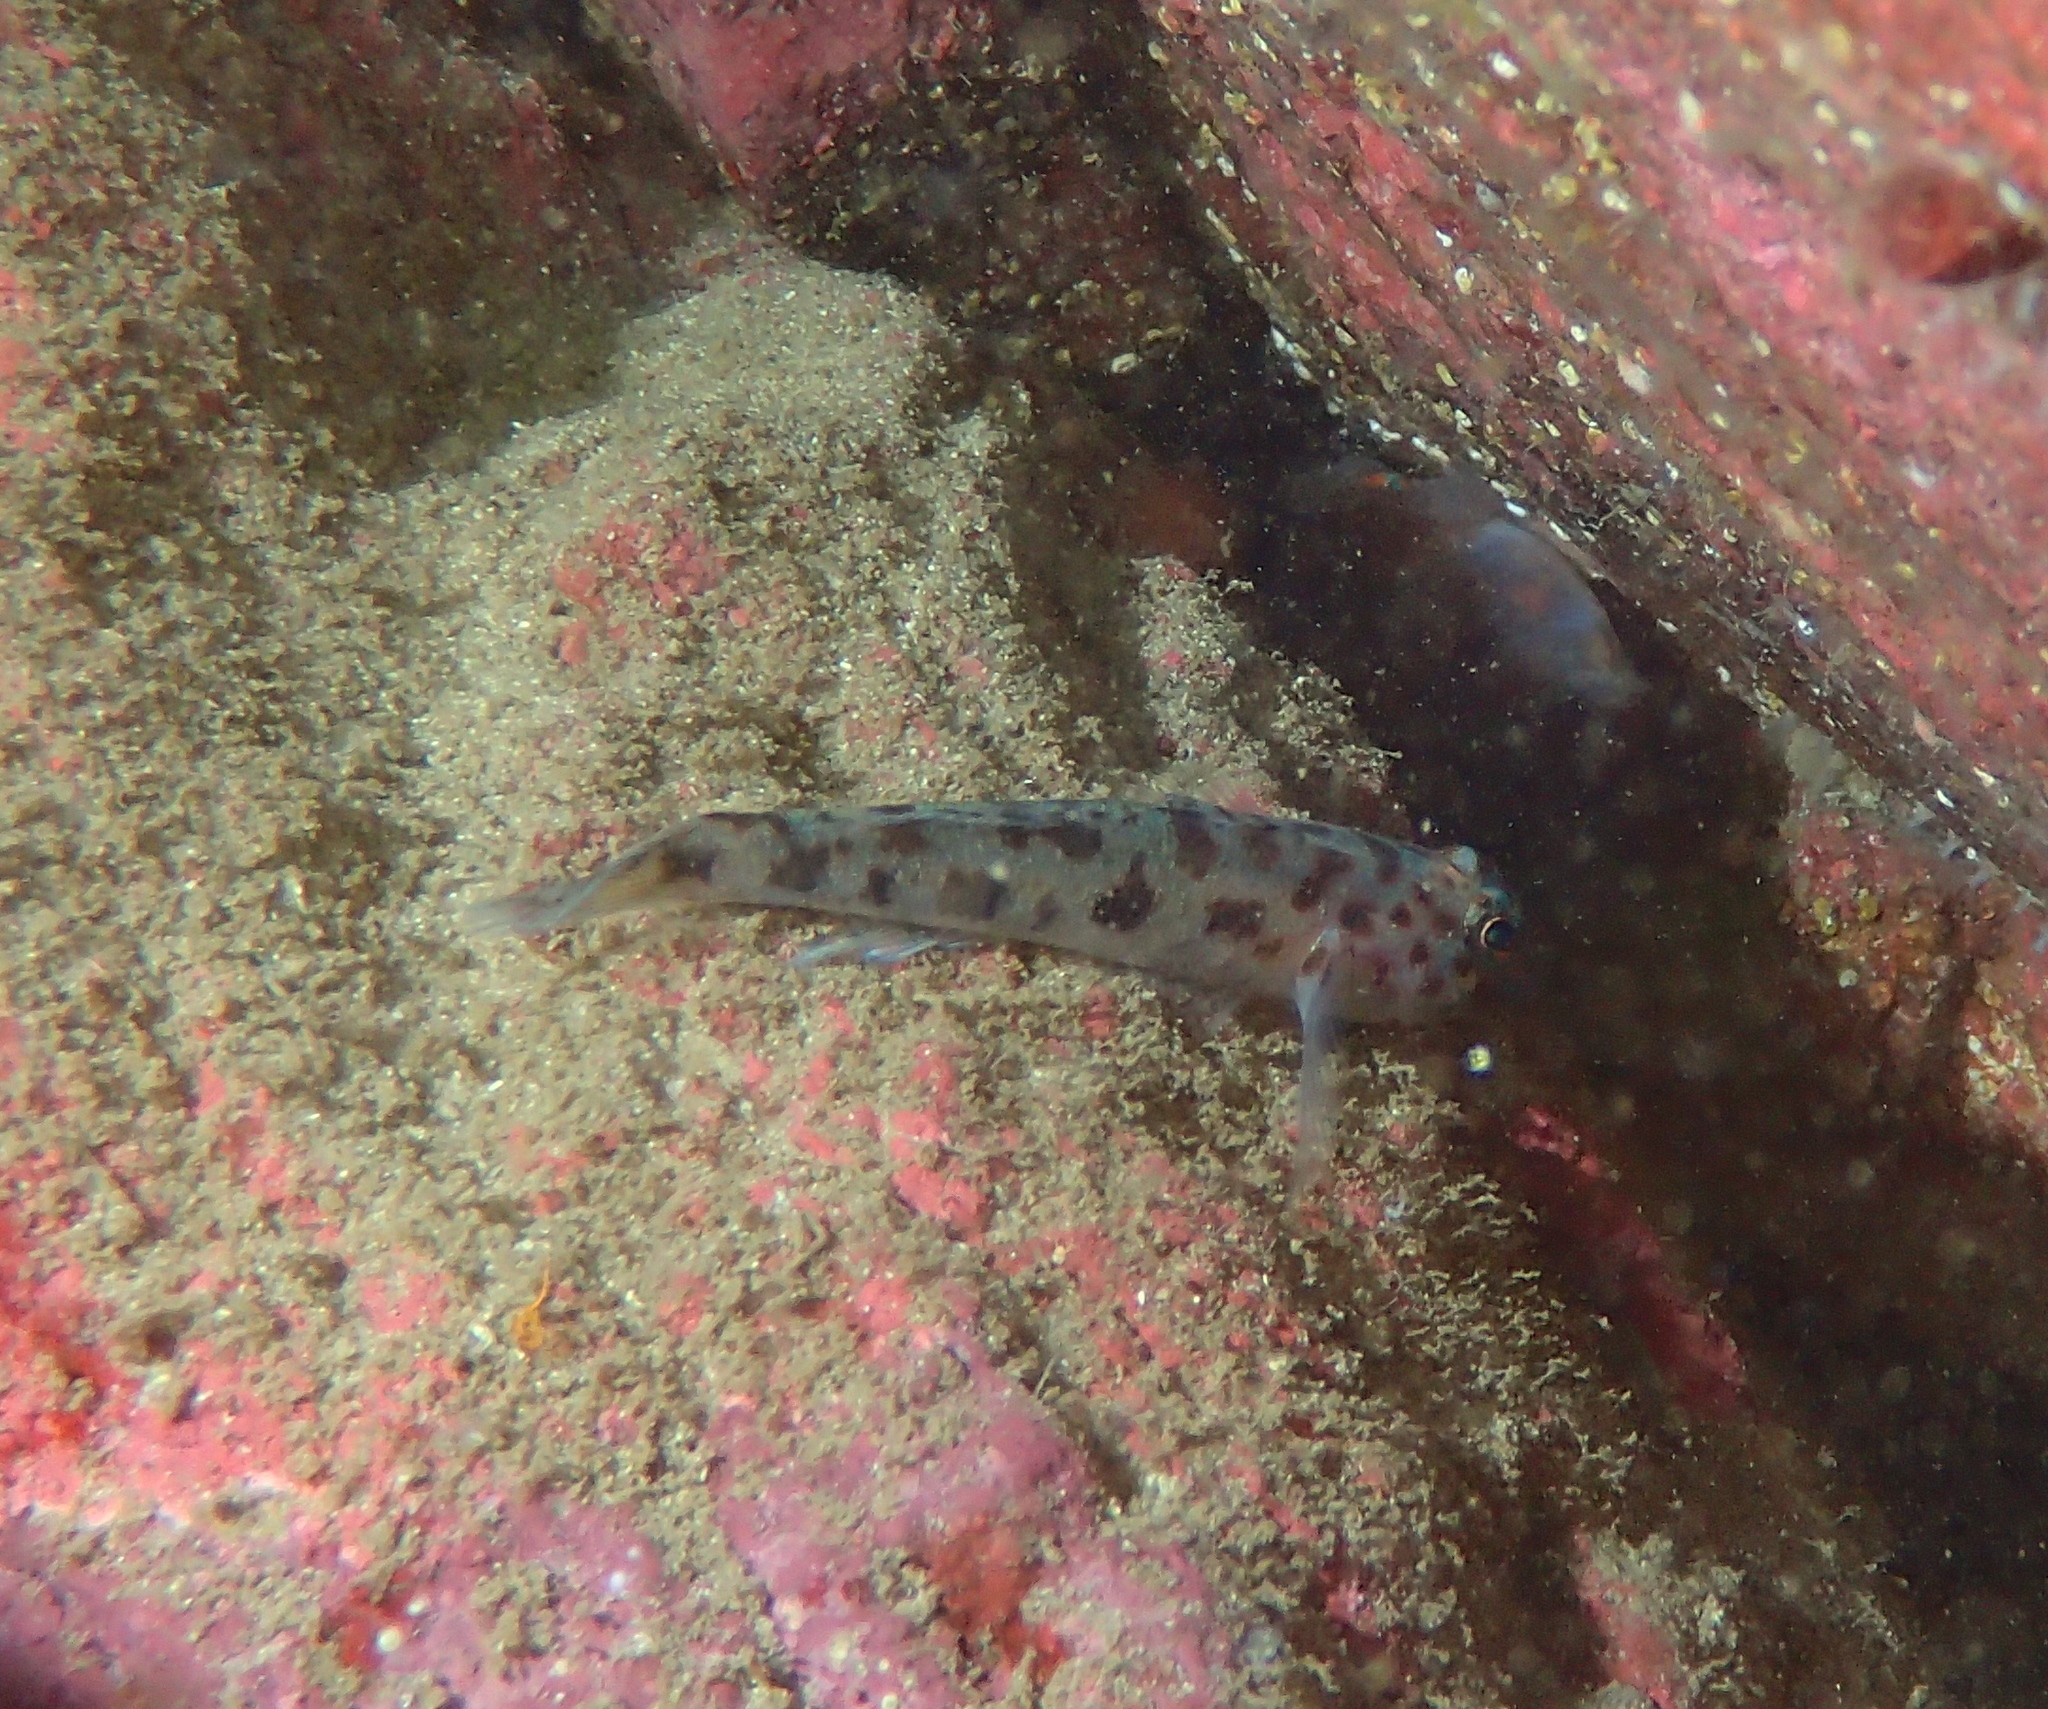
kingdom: Animalia
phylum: Chordata
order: Perciformes
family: Gobiidae
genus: Thorogobius
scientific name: Thorogobius ephippiatus
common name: Leopard-spotted goby
